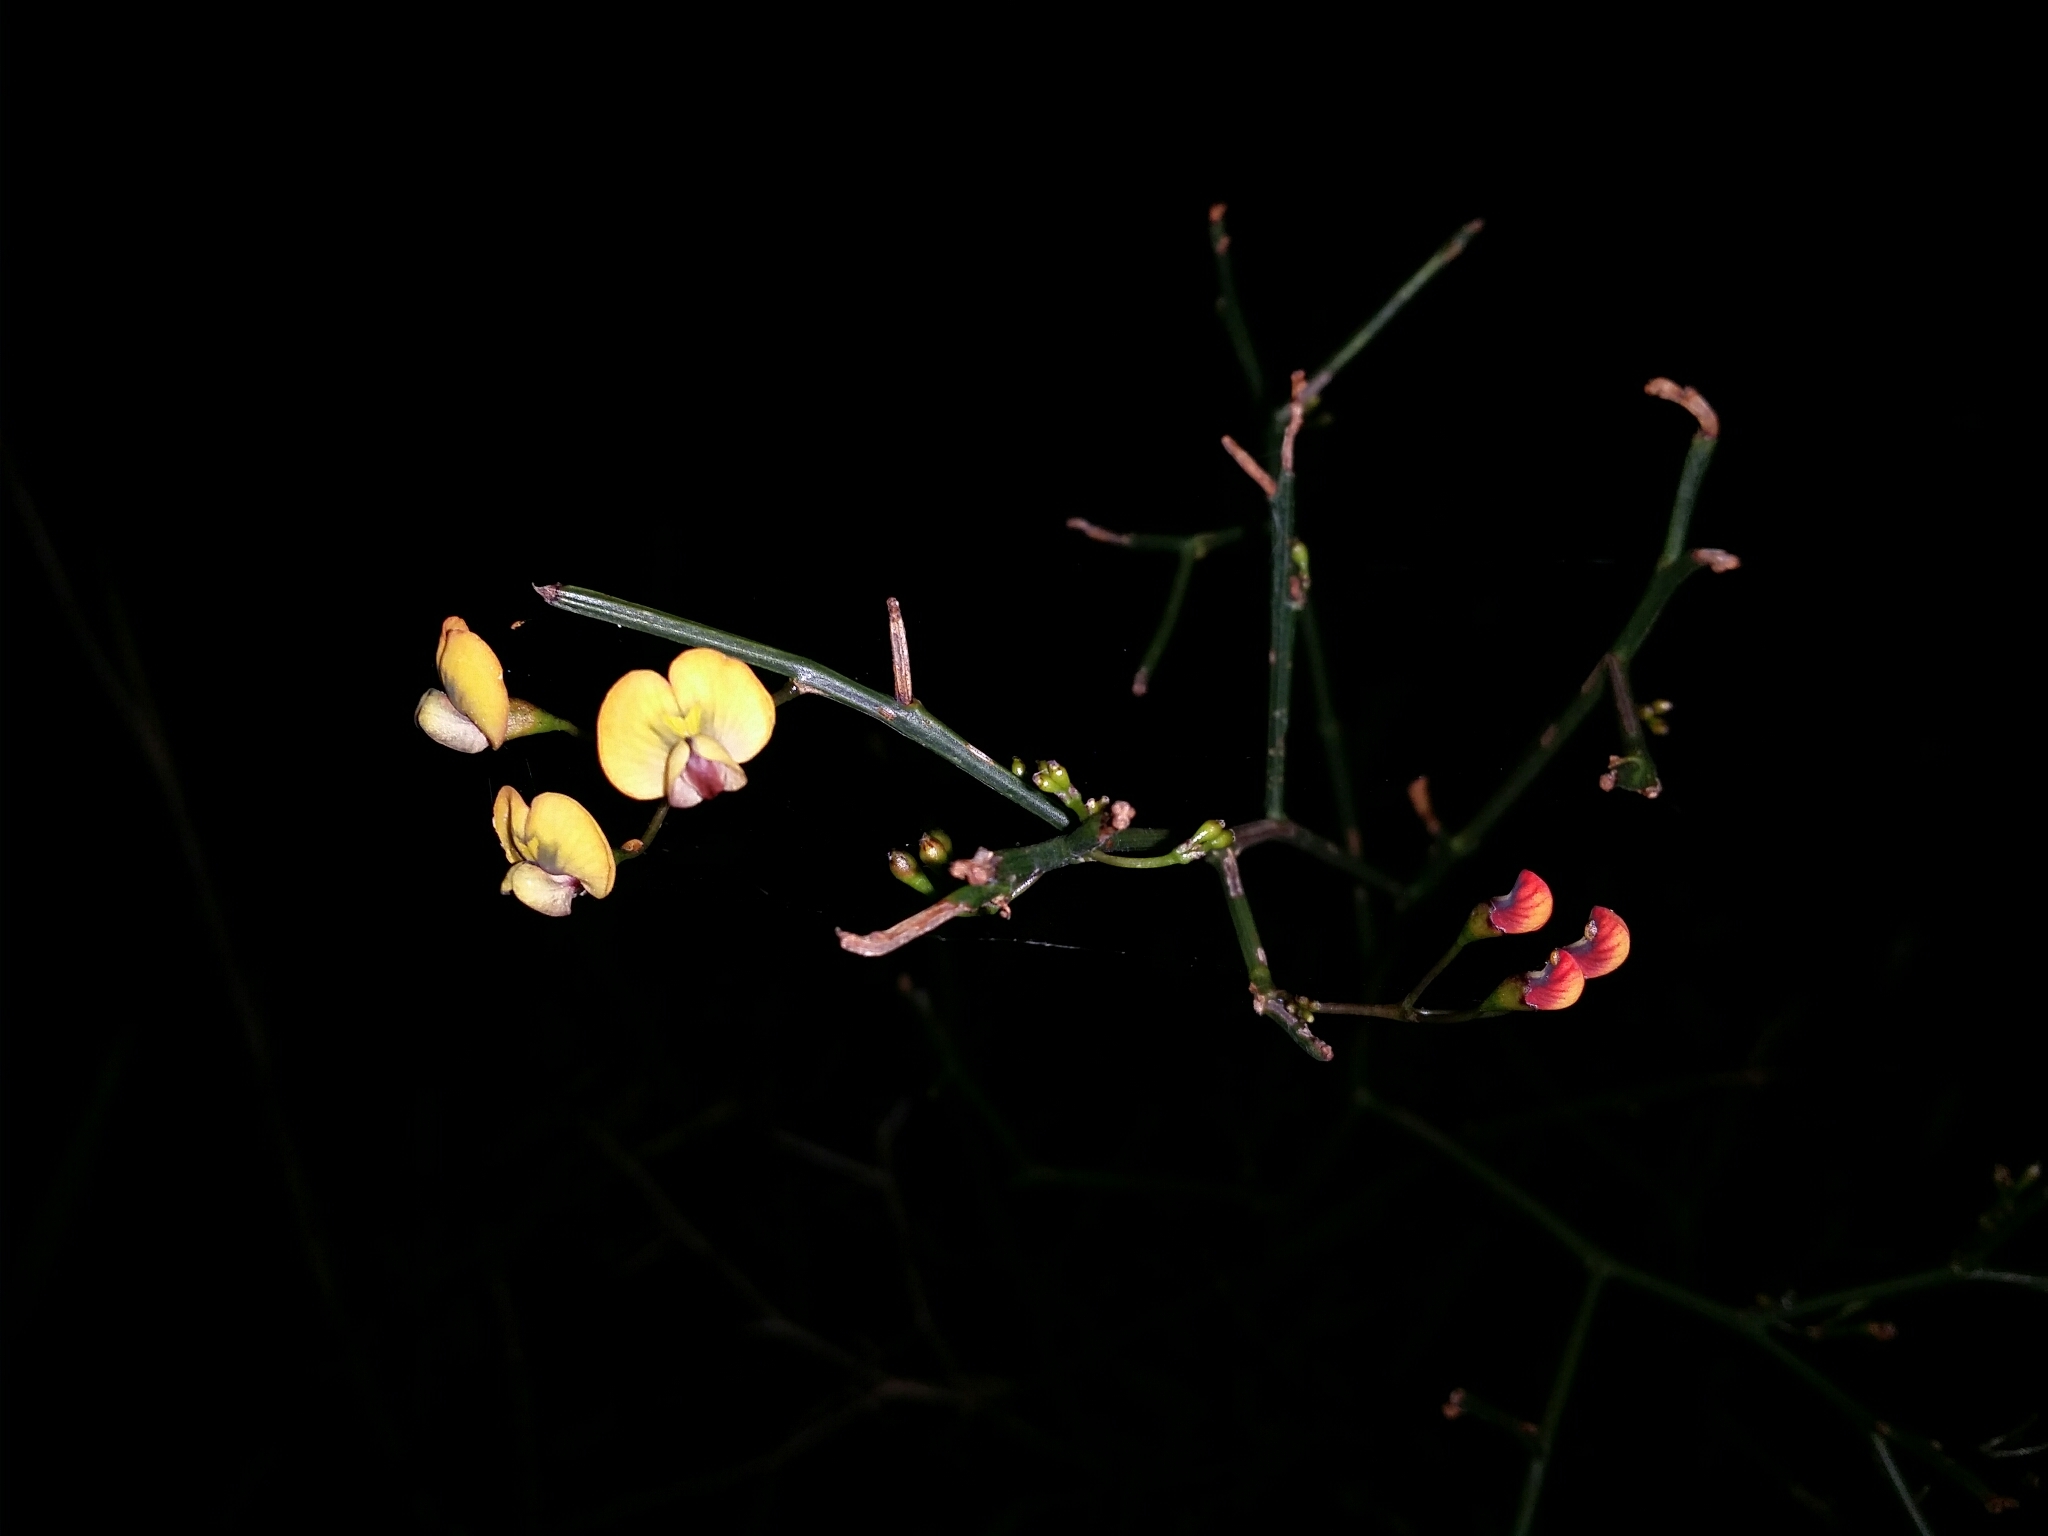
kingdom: Plantae
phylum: Tracheophyta
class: Magnoliopsida
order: Fabales
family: Fabaceae
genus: Daviesia
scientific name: Daviesia divaricata
